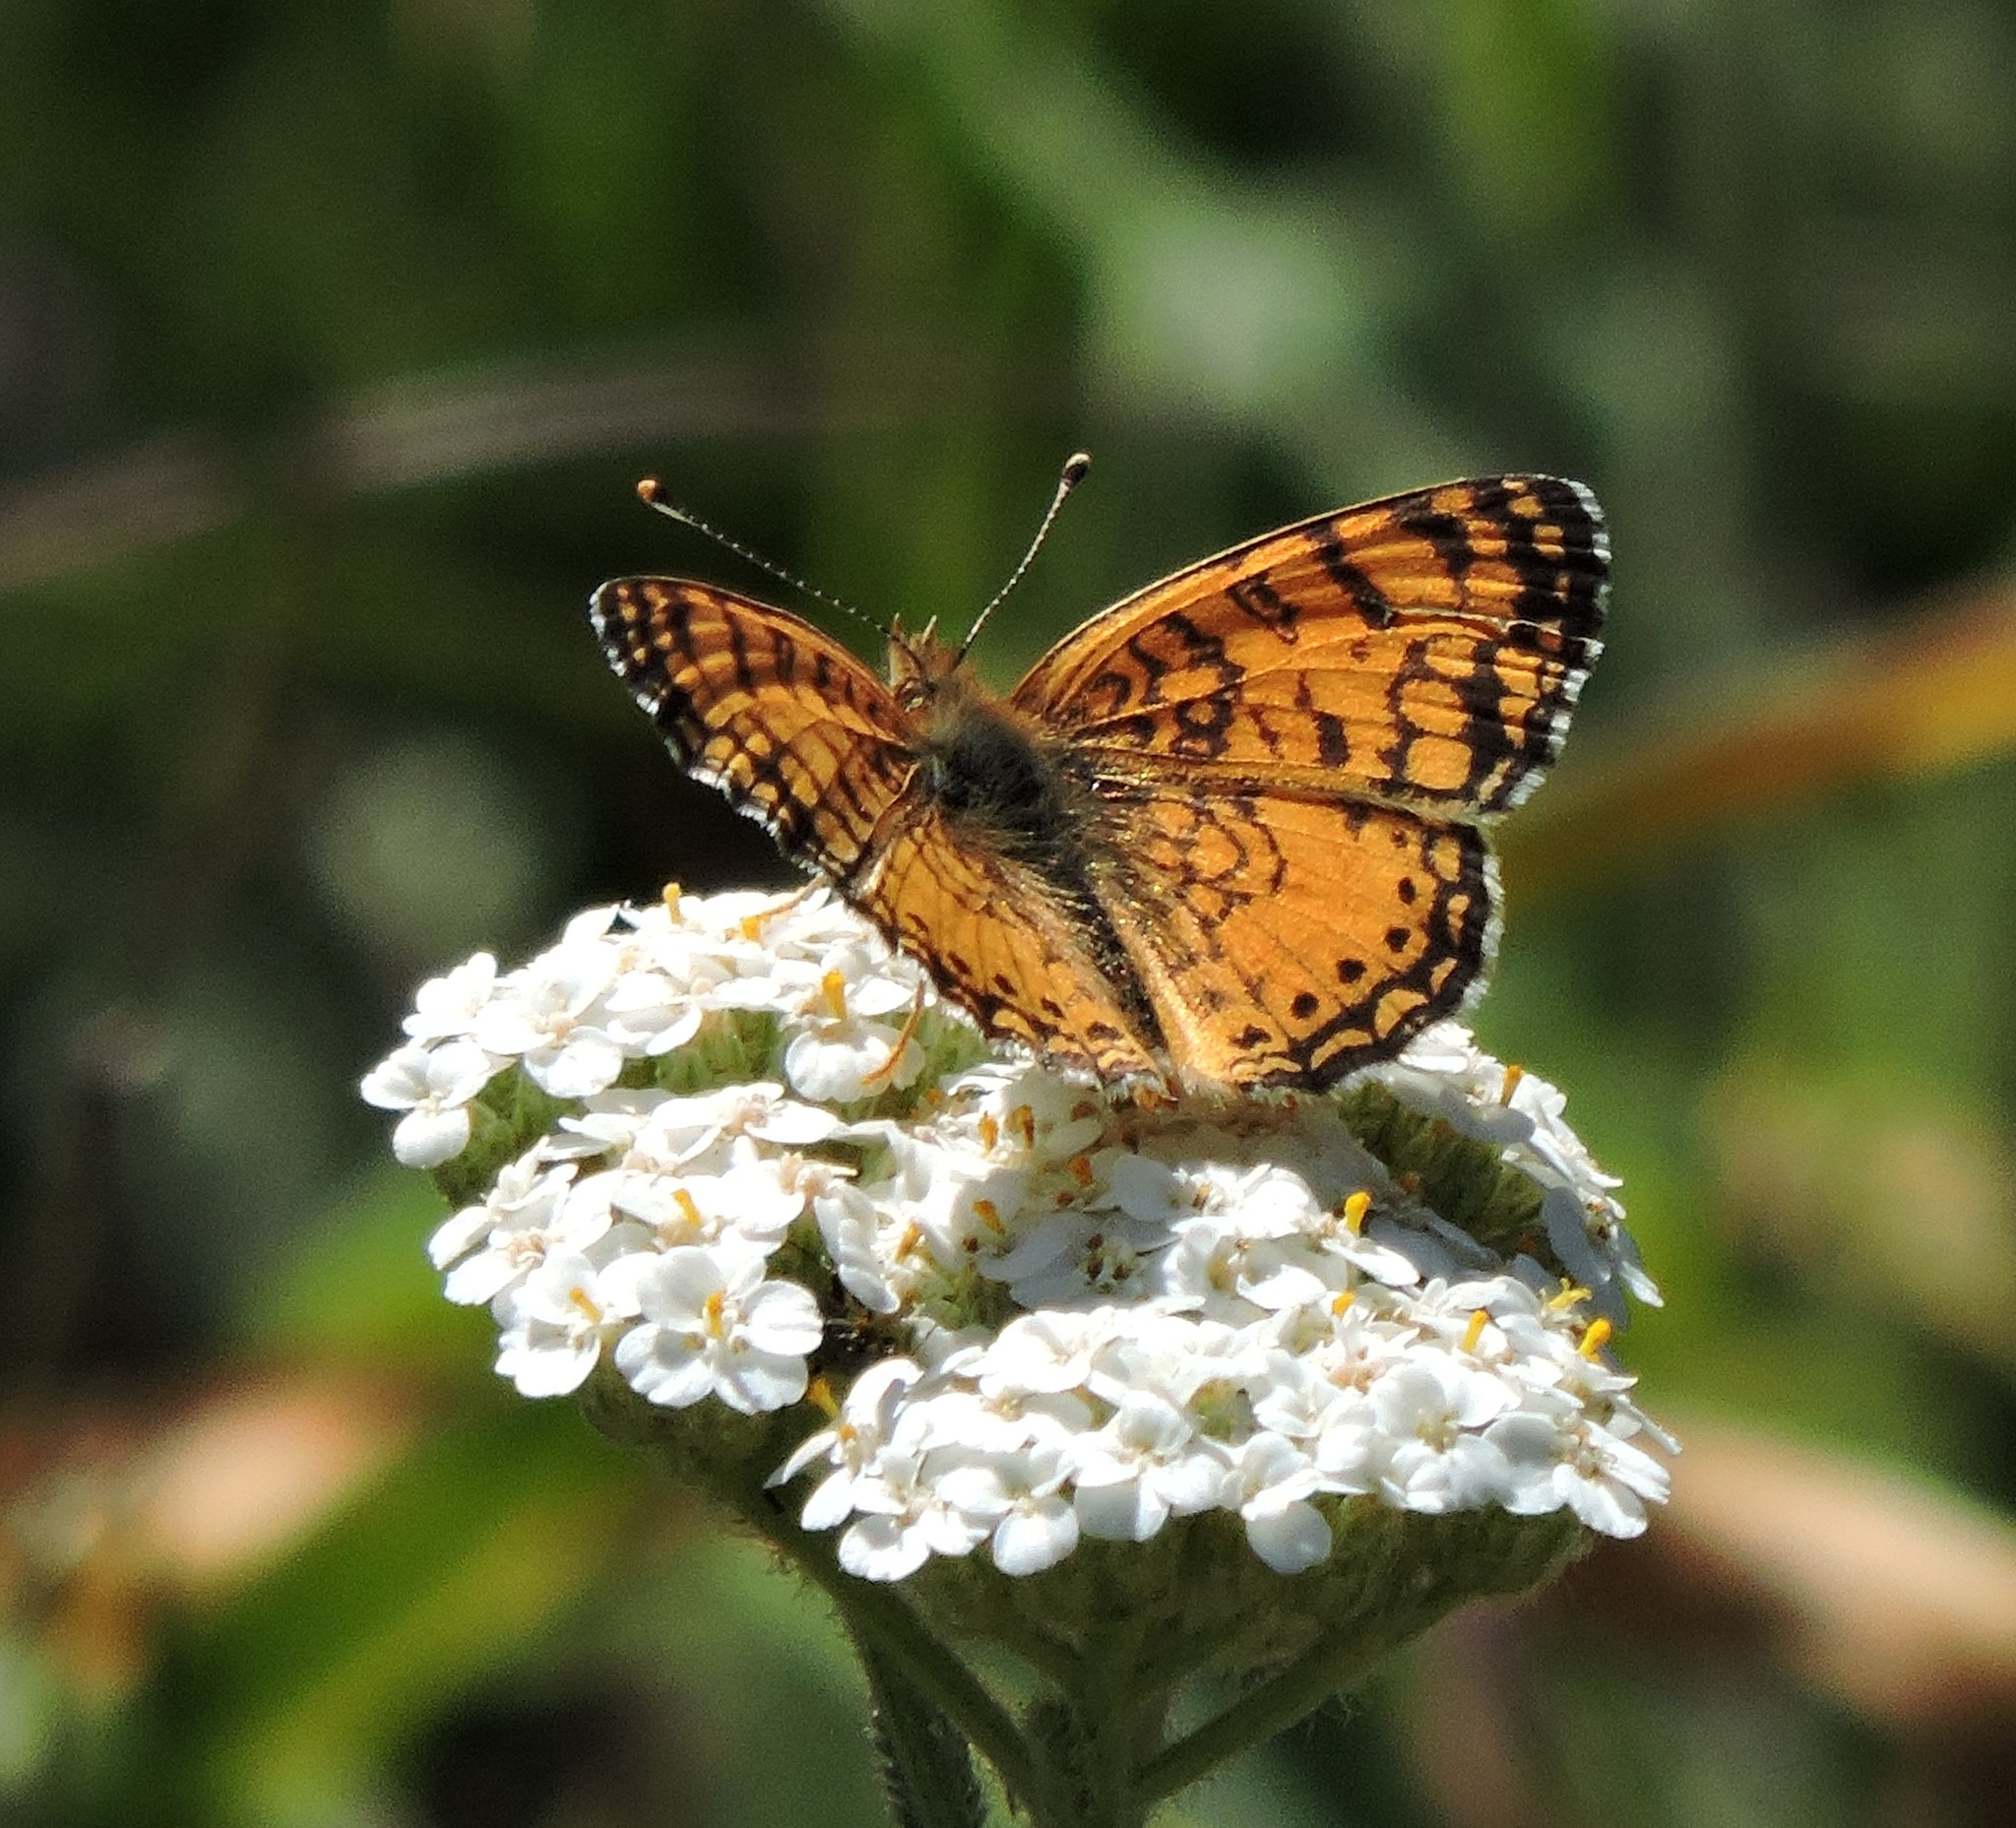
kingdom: Animalia
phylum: Arthropoda
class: Insecta
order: Lepidoptera
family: Nymphalidae
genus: Eresia
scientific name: Eresia aveyrona
